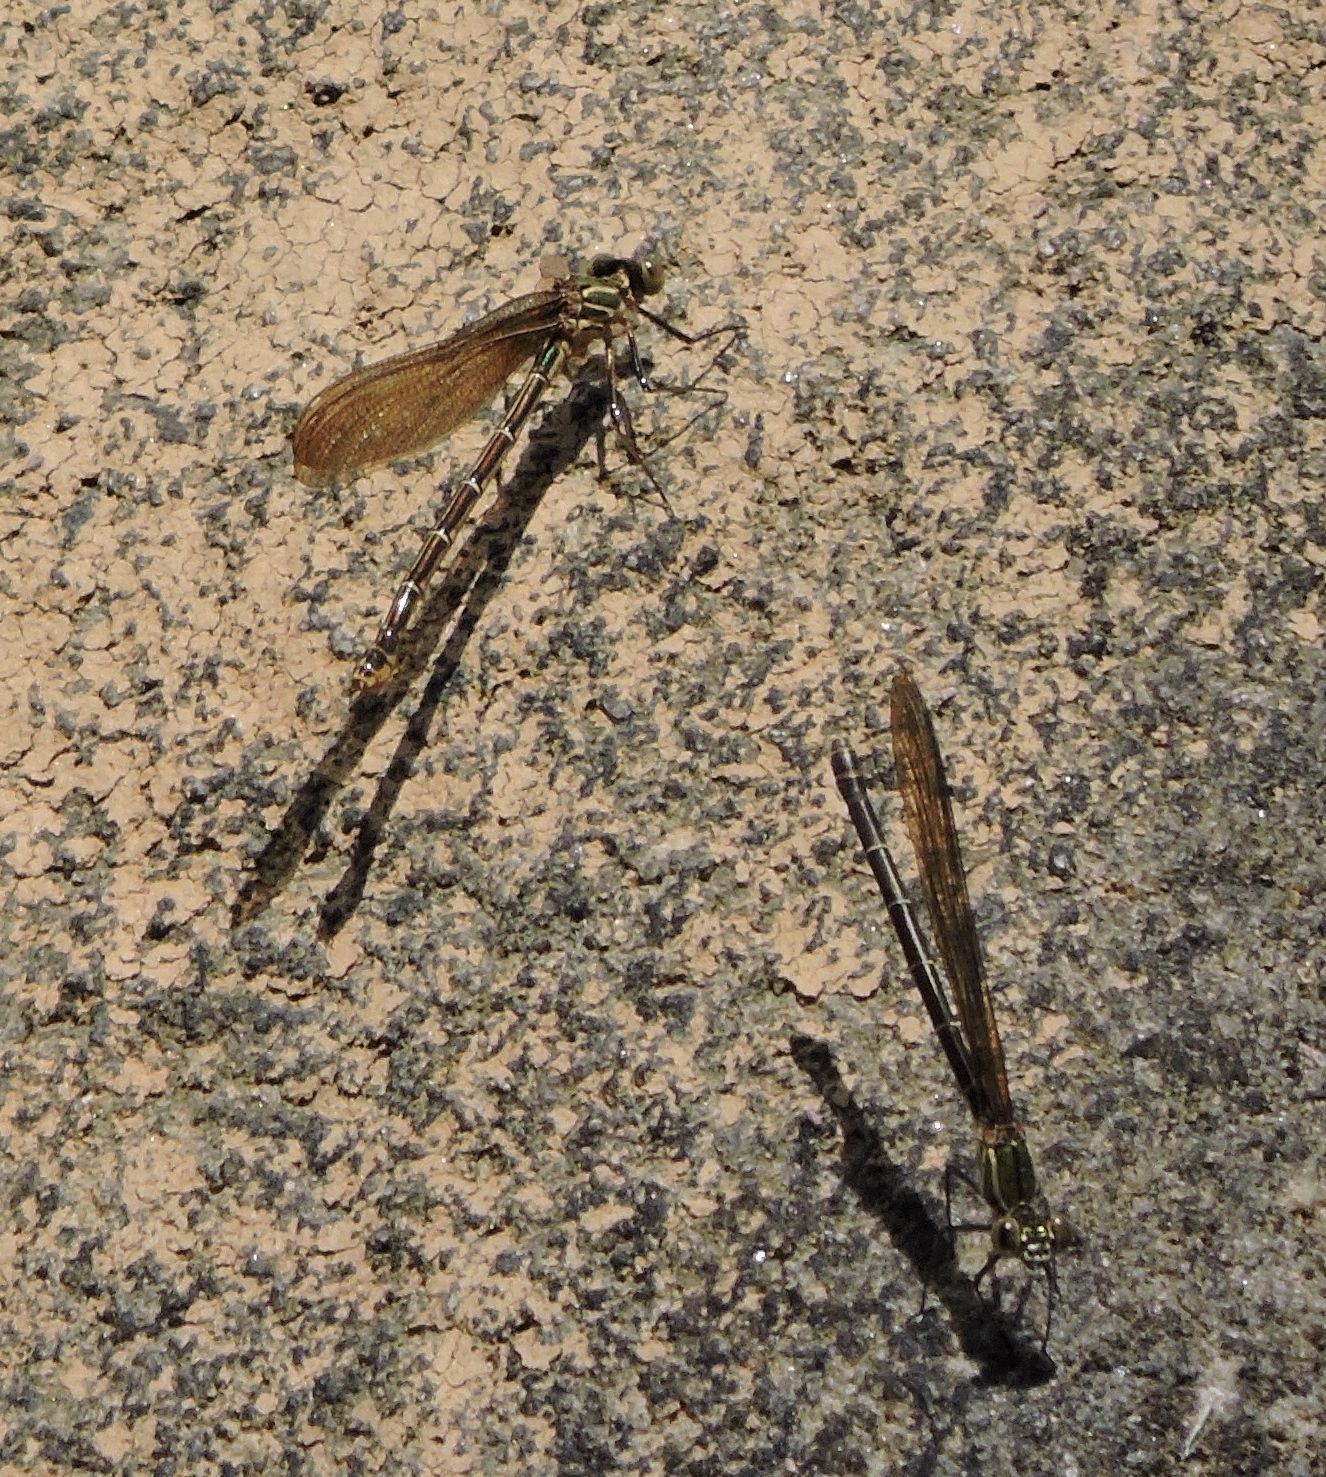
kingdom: Animalia
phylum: Arthropoda
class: Insecta
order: Odonata
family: Calopterygidae
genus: Hetaerina
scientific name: Hetaerina americana
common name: American rubyspot
